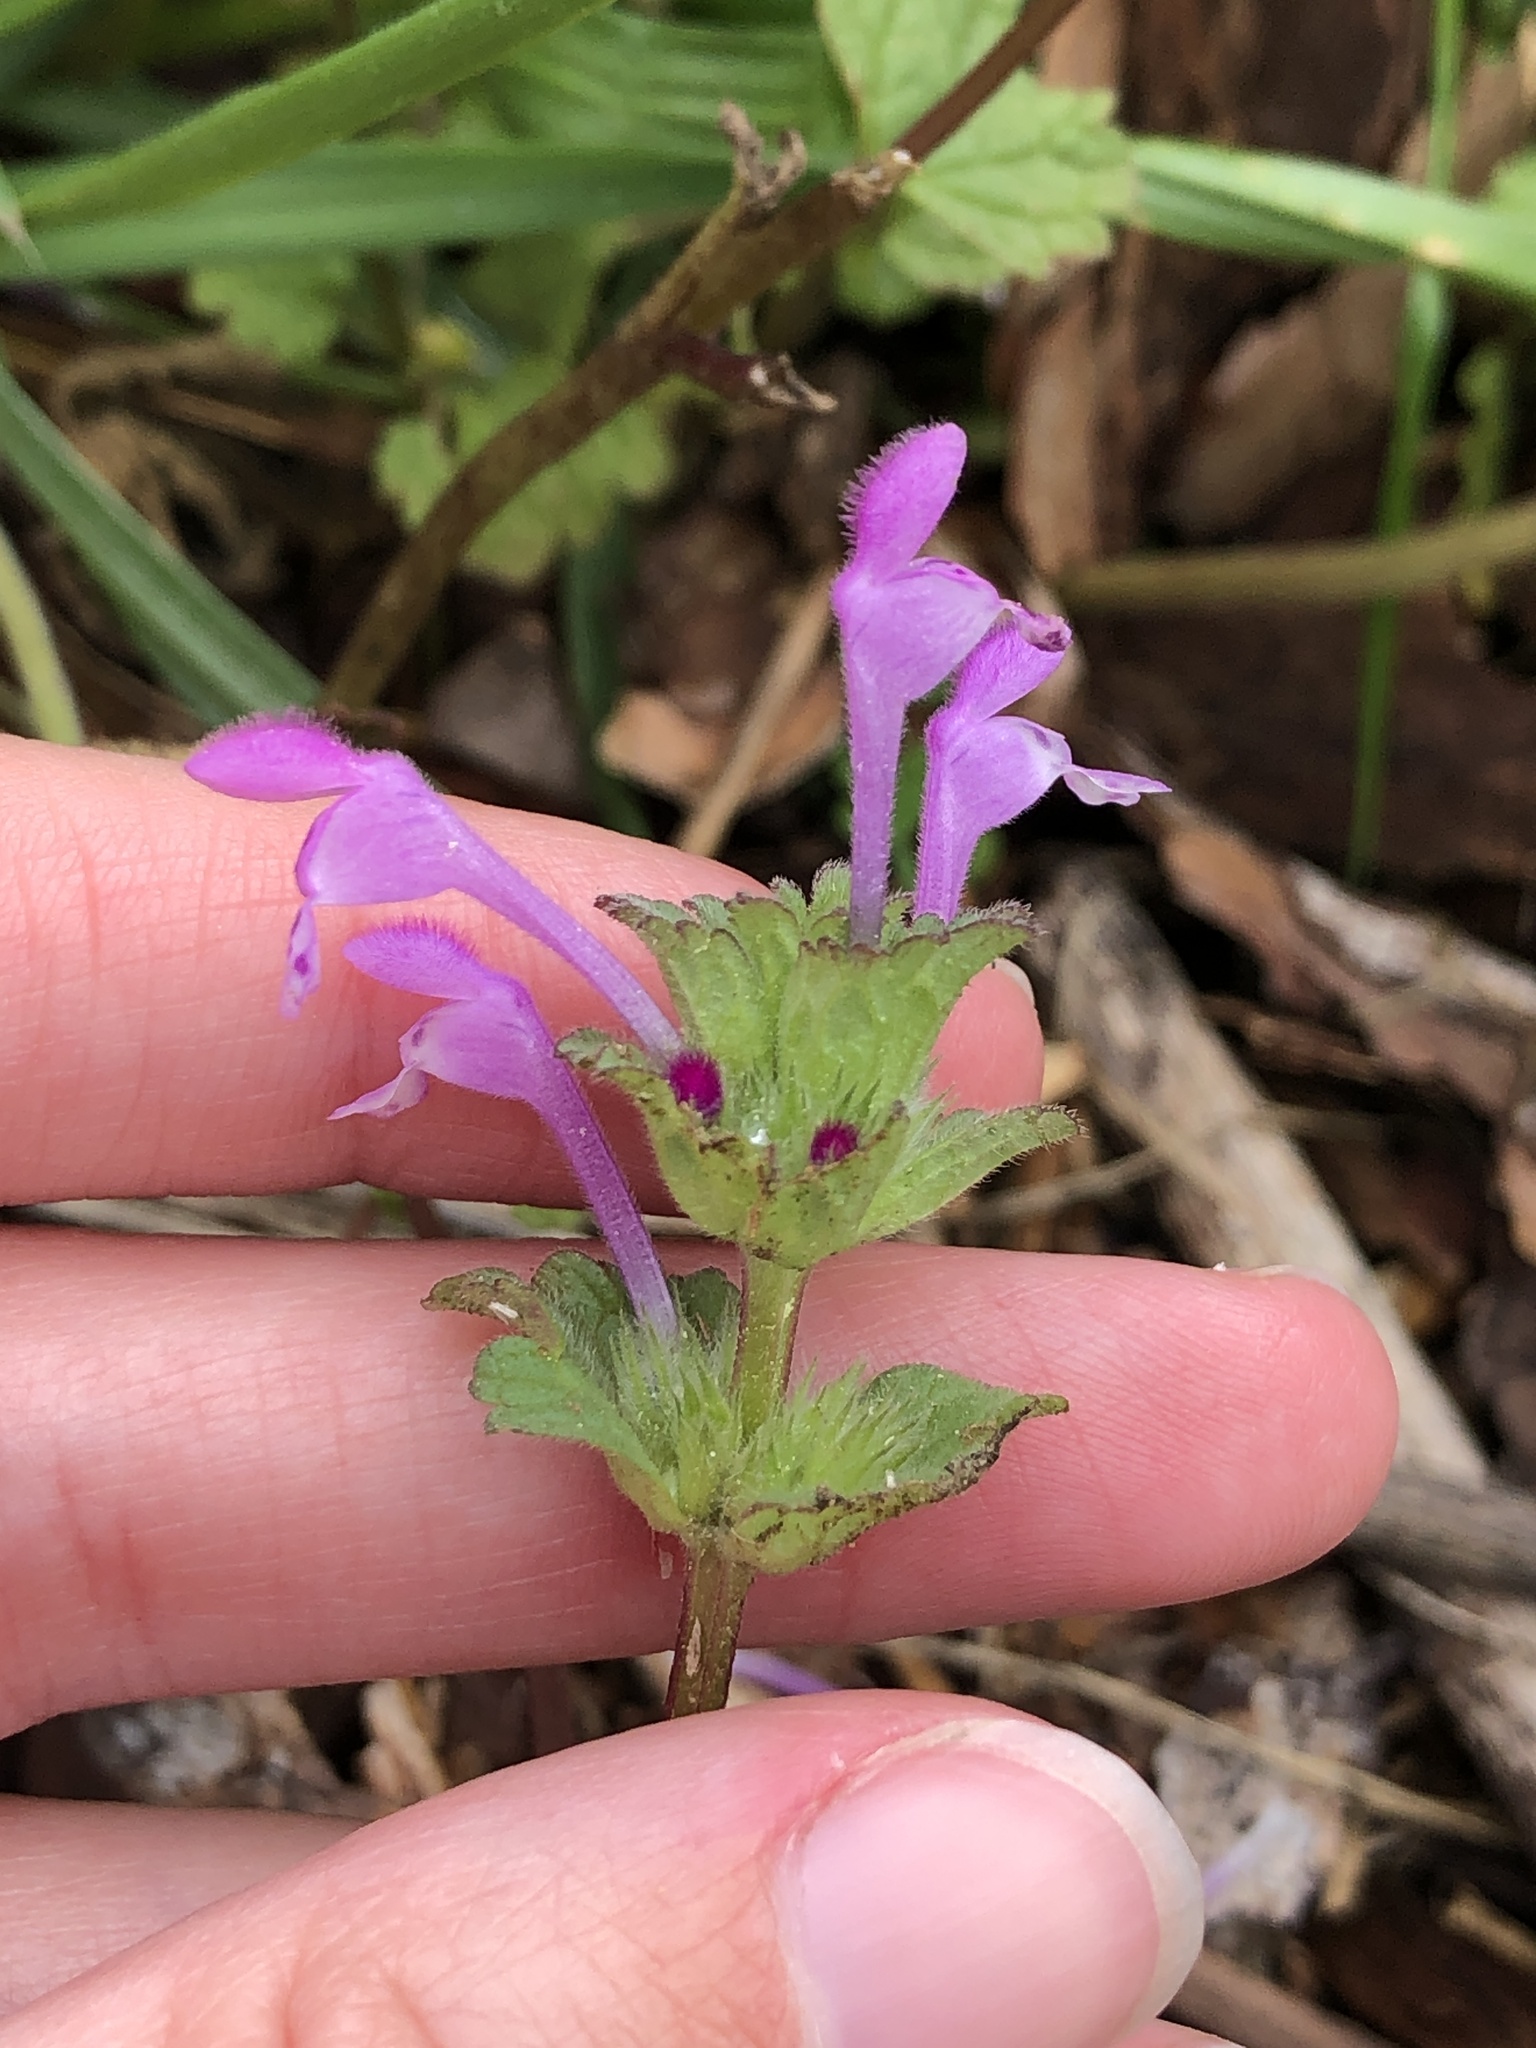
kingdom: Plantae
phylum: Tracheophyta
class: Magnoliopsida
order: Lamiales
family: Lamiaceae
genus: Lamium
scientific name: Lamium amplexicaule
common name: Henbit dead-nettle
